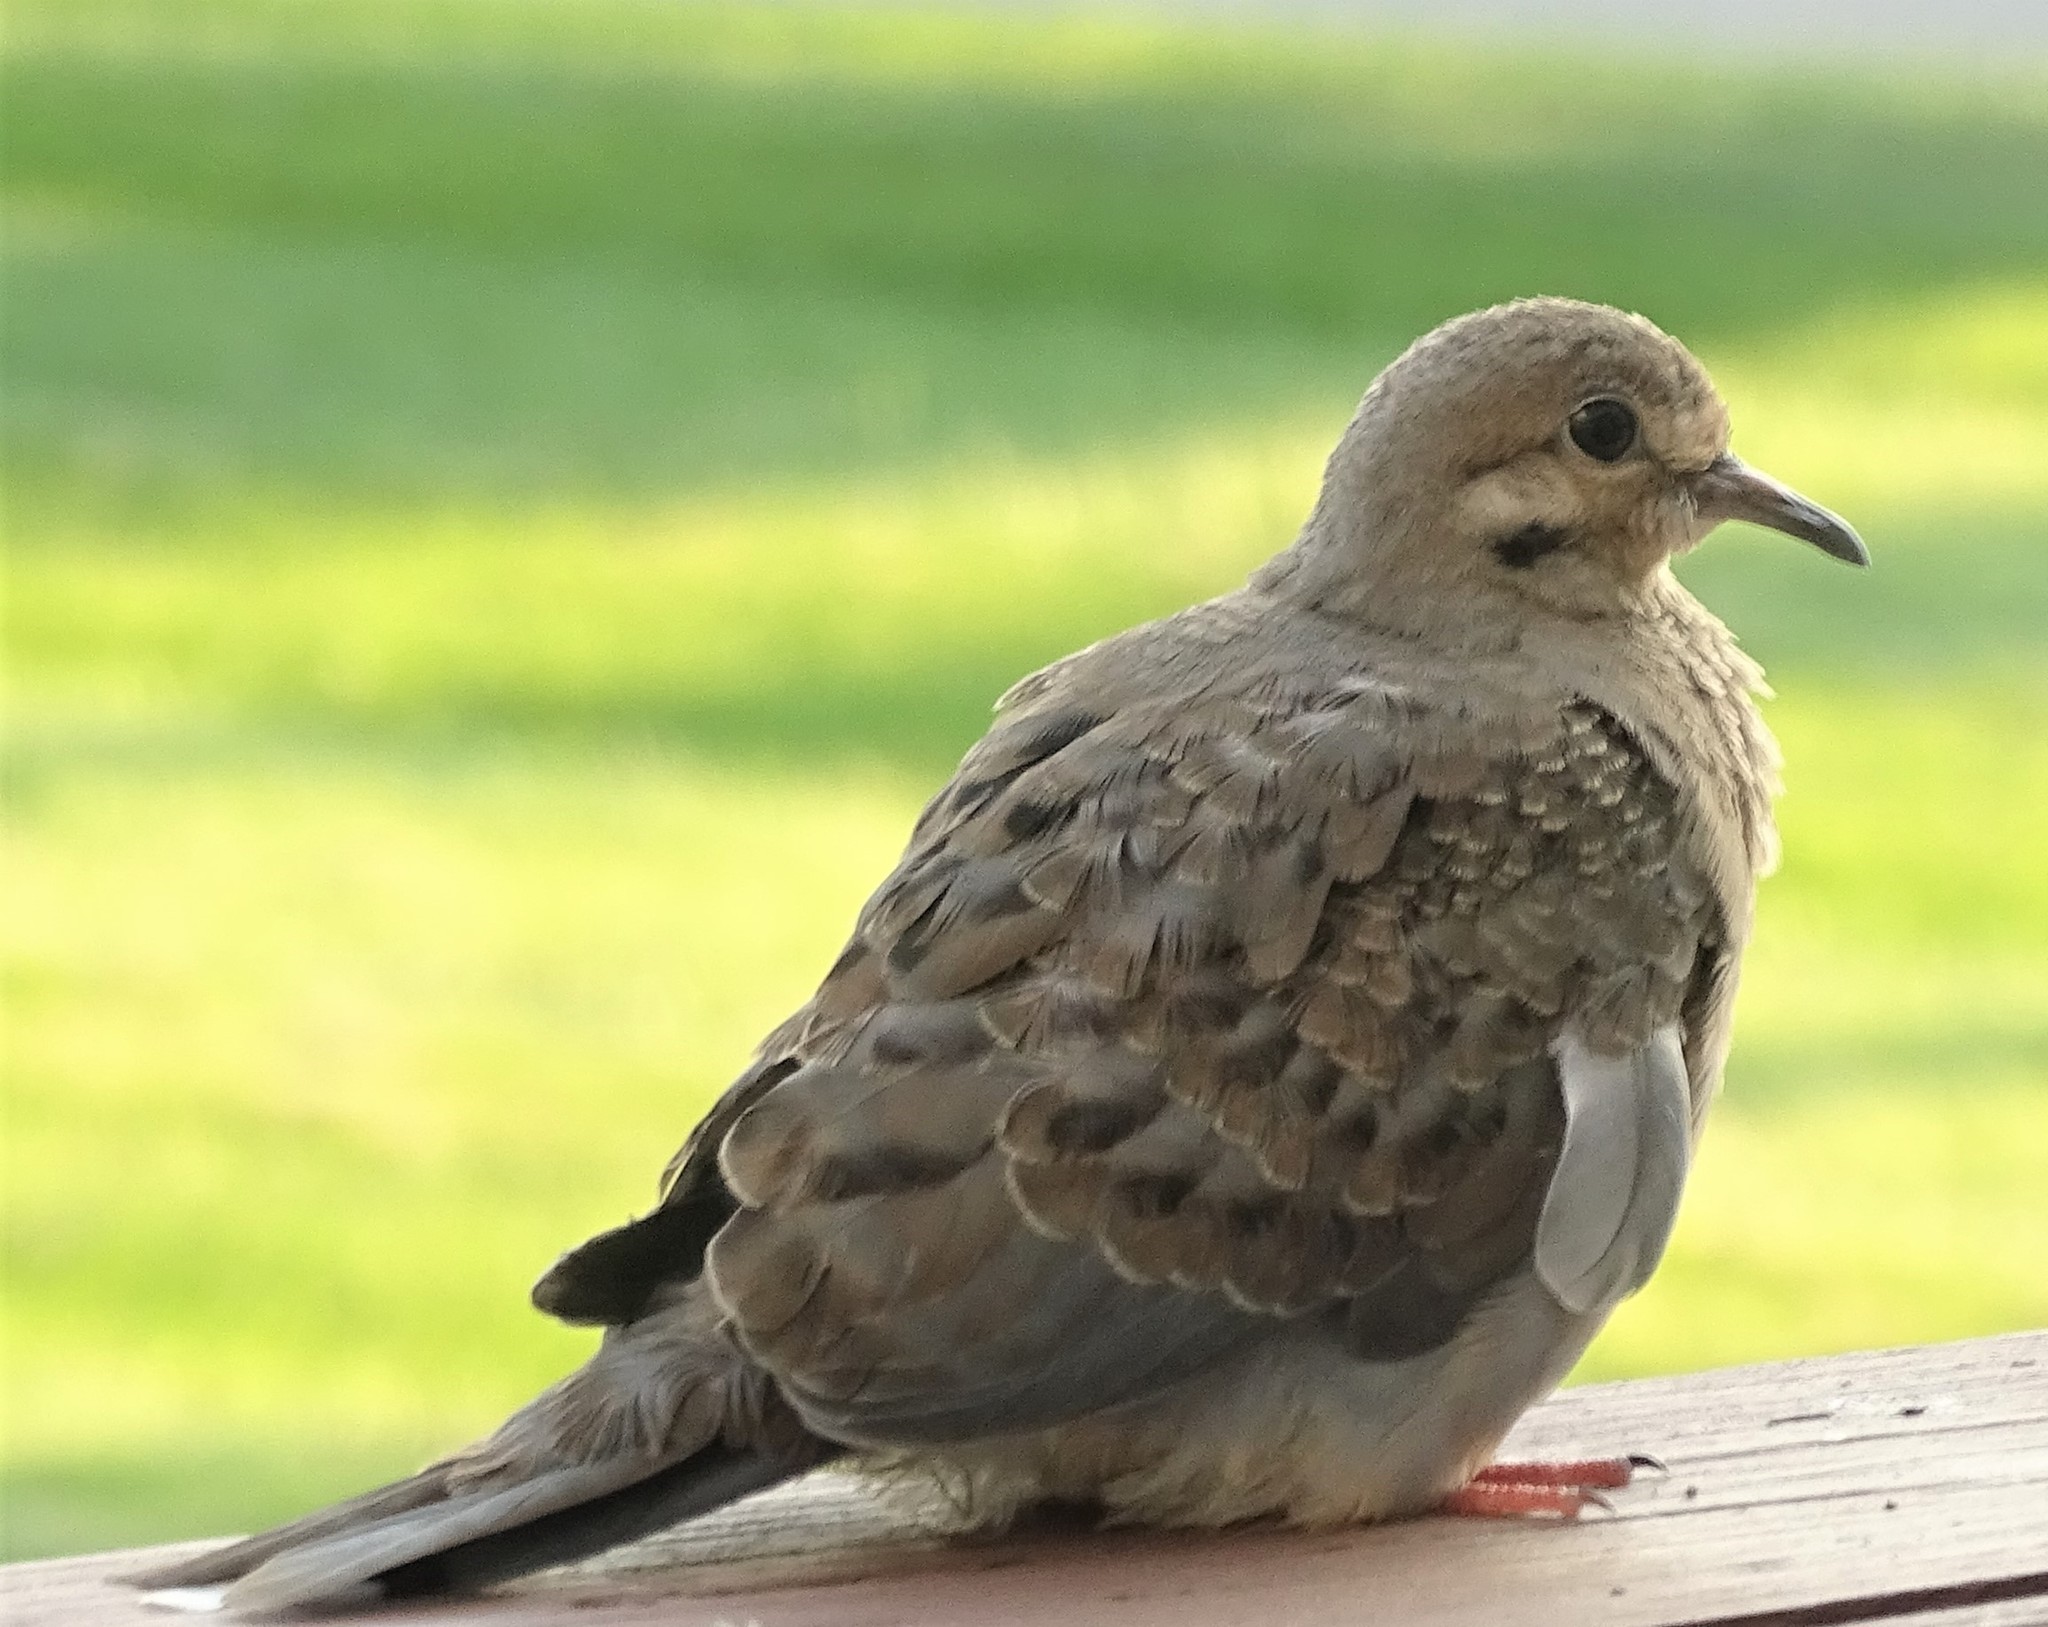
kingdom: Animalia
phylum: Chordata
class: Aves
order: Columbiformes
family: Columbidae
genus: Zenaida
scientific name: Zenaida macroura
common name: Mourning dove
